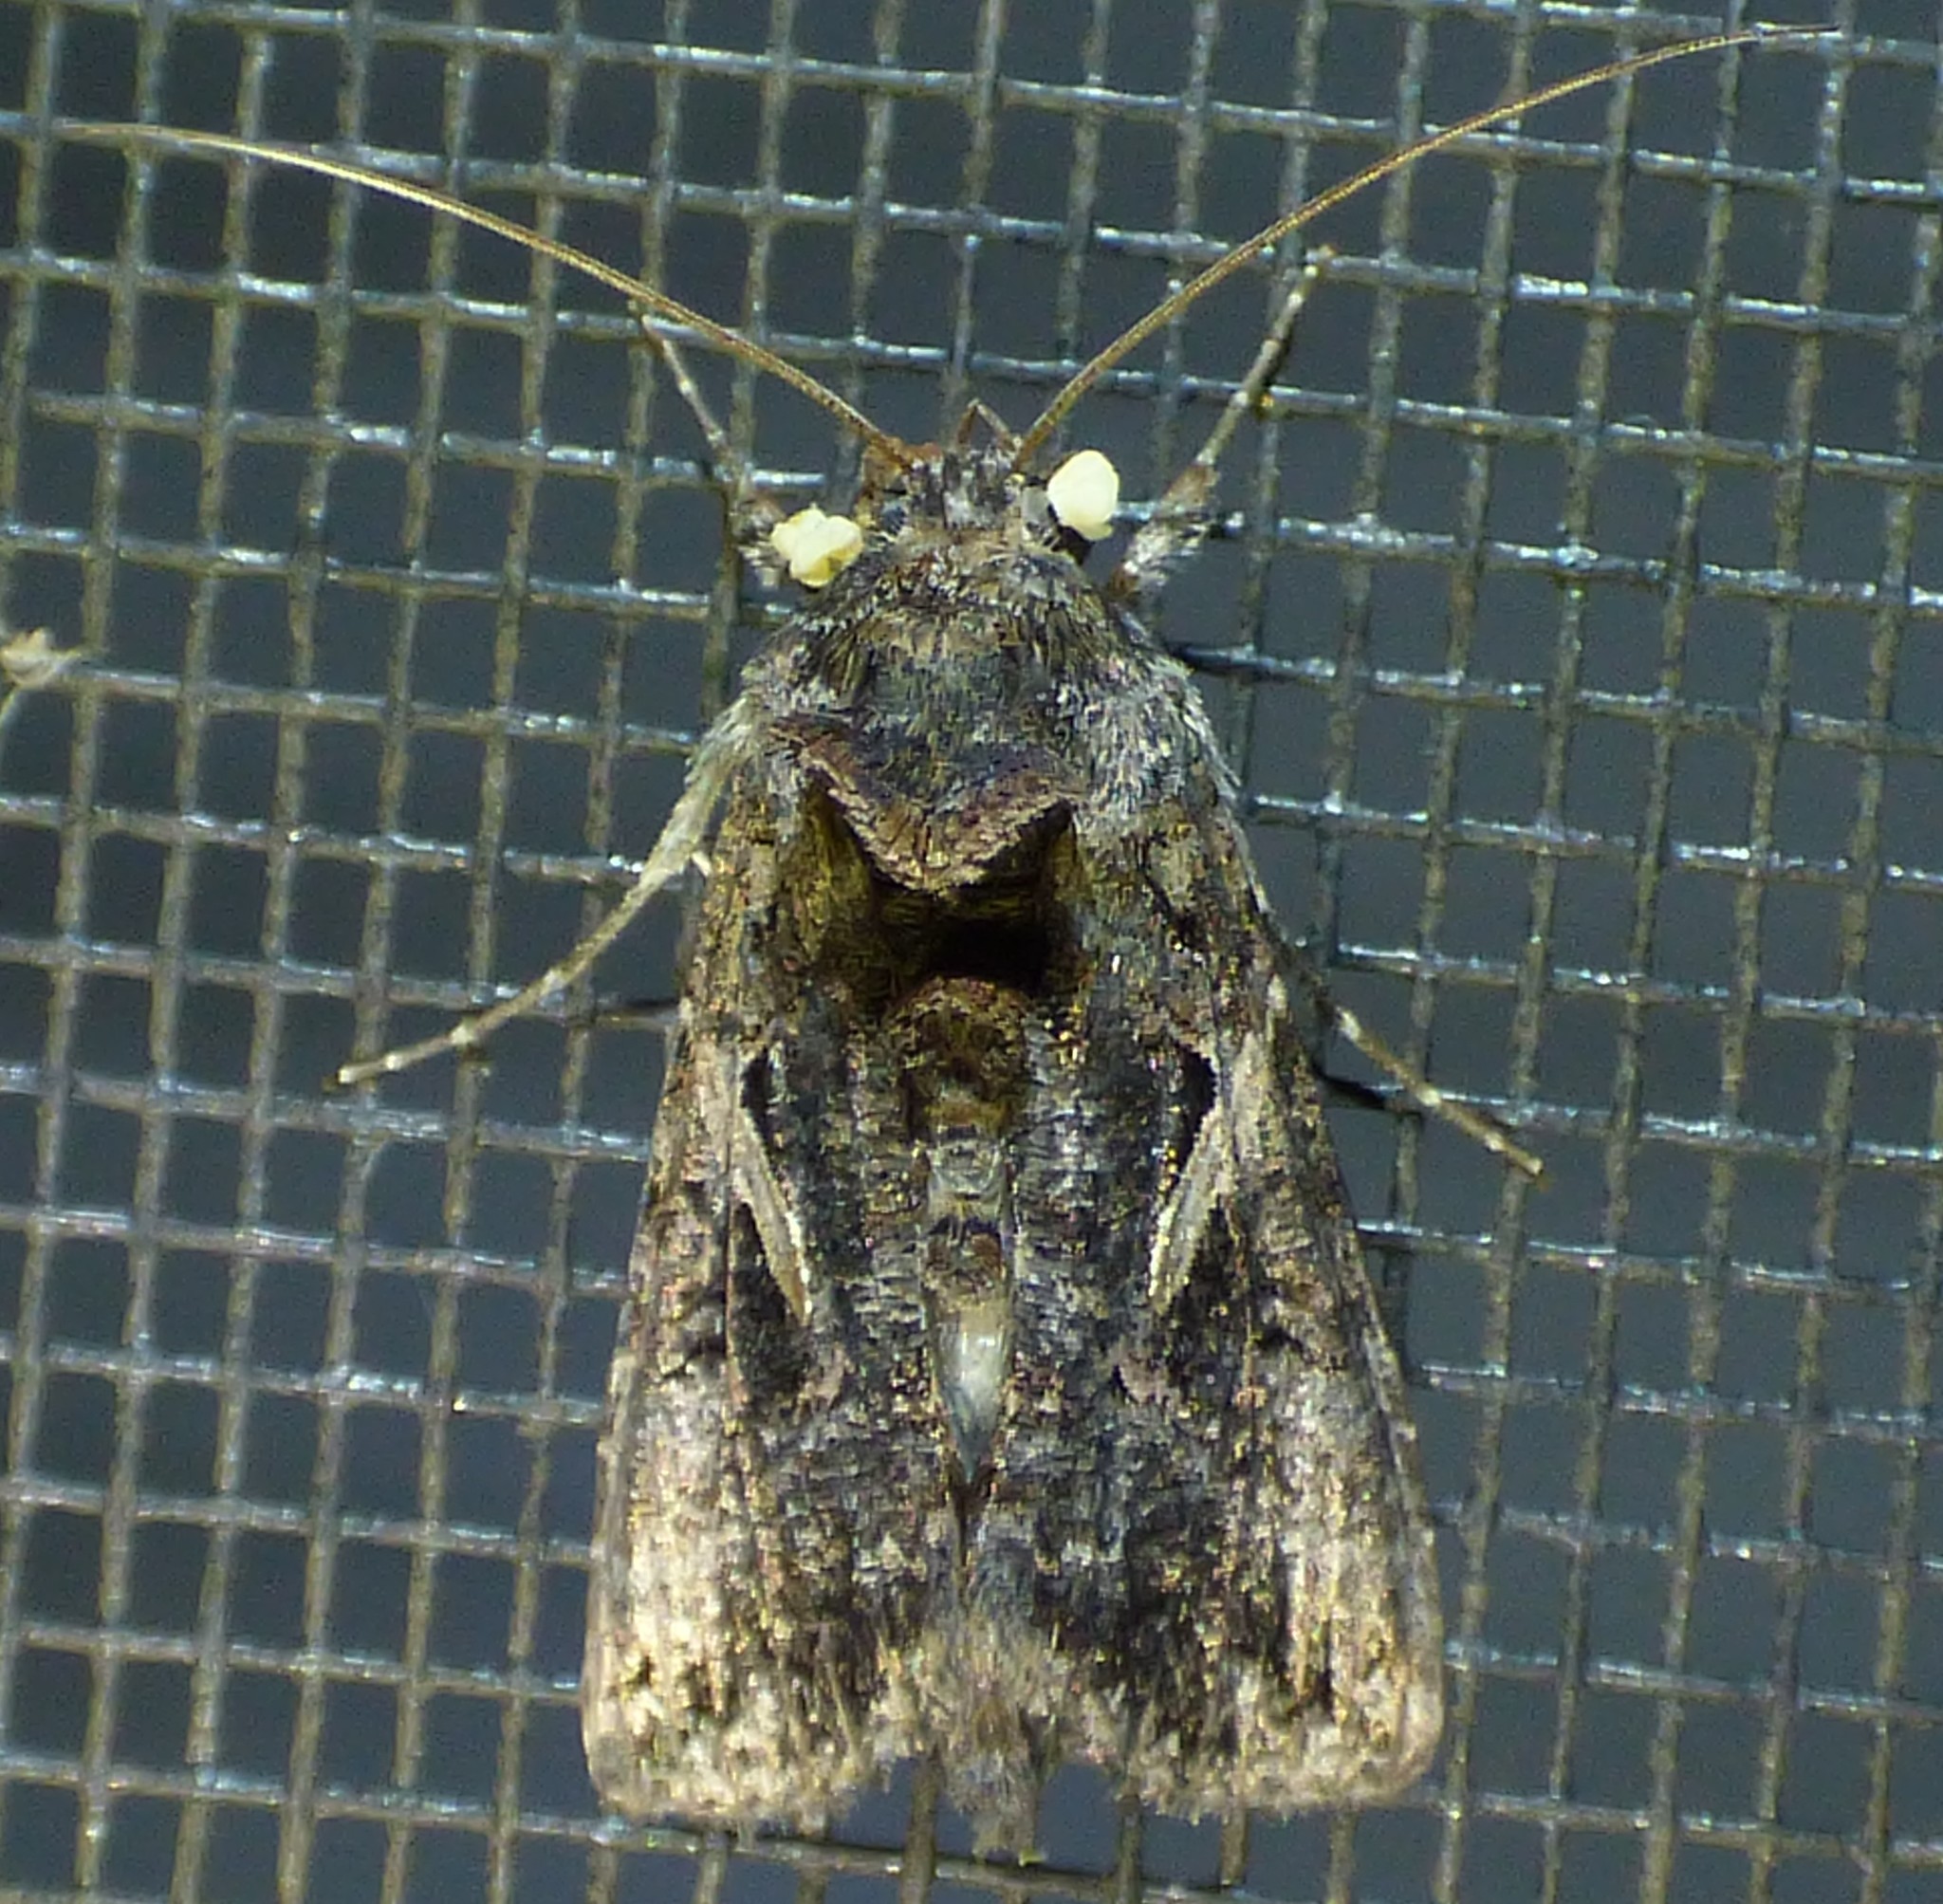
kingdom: Animalia
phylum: Arthropoda
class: Insecta
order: Lepidoptera
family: Noctuidae
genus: Ctenoplusia
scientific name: Ctenoplusia oxygramma
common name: Sharp-stigma looper moth
